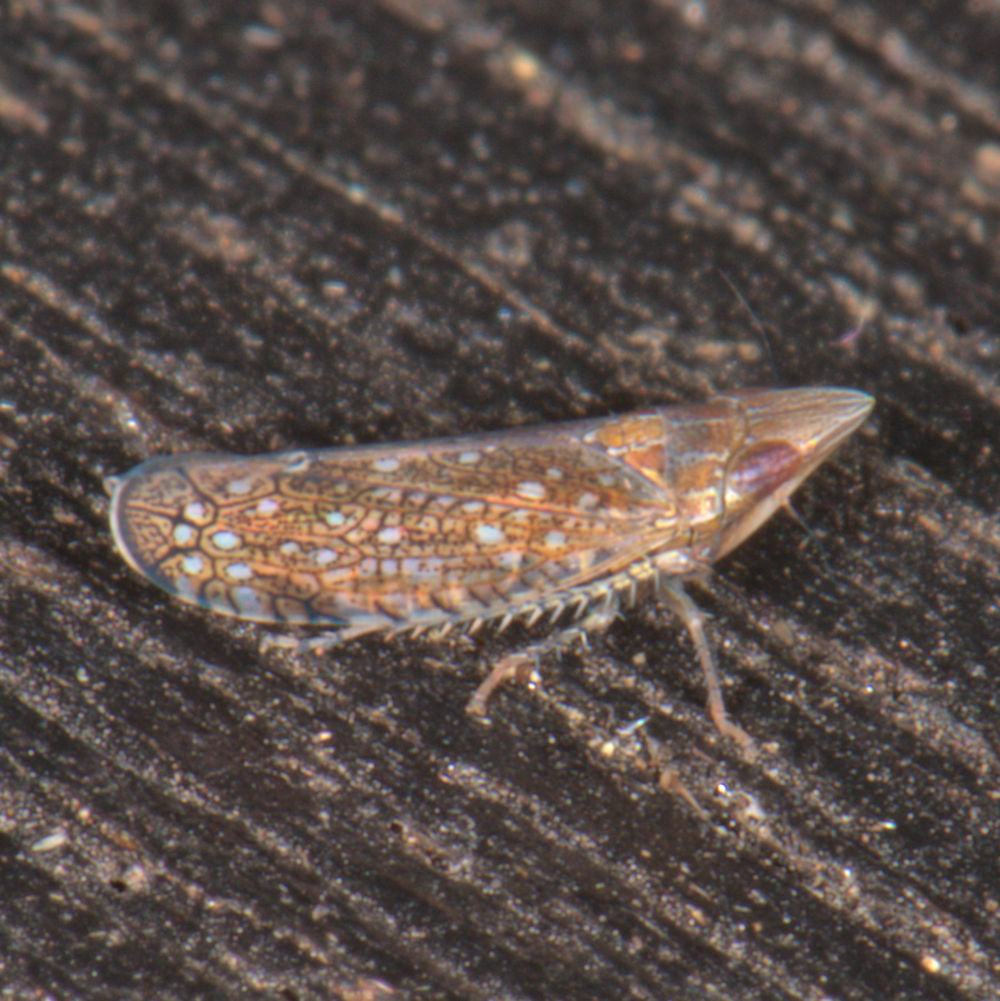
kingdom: Animalia
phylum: Arthropoda
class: Insecta
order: Hemiptera
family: Cicadellidae
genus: Scaphytopius
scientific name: Scaphytopius acutus
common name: The sharp-nosed leafhopper
